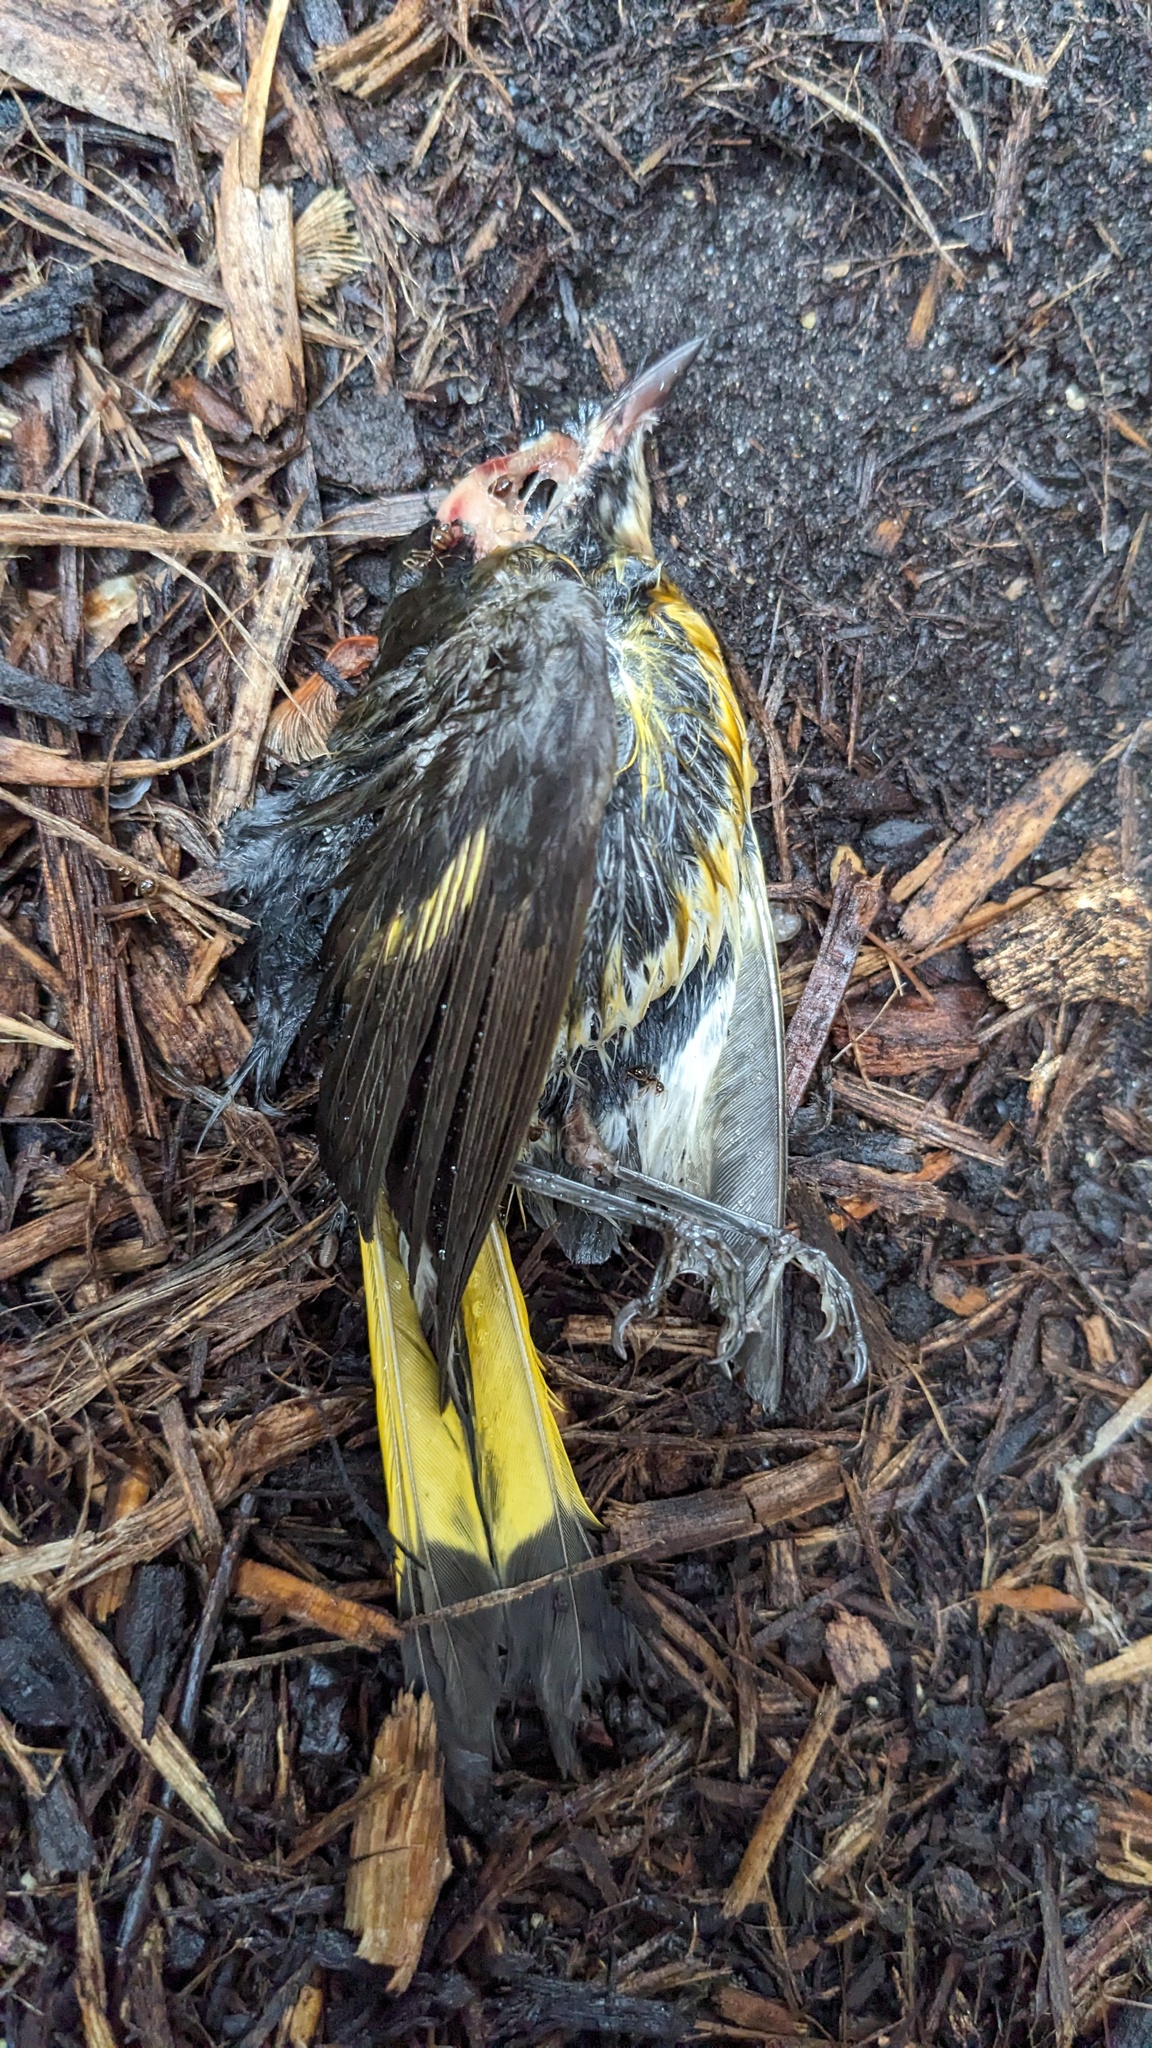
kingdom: Animalia
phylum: Chordata
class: Aves
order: Passeriformes
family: Parulidae
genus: Setophaga
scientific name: Setophaga ruticilla
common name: American redstart
